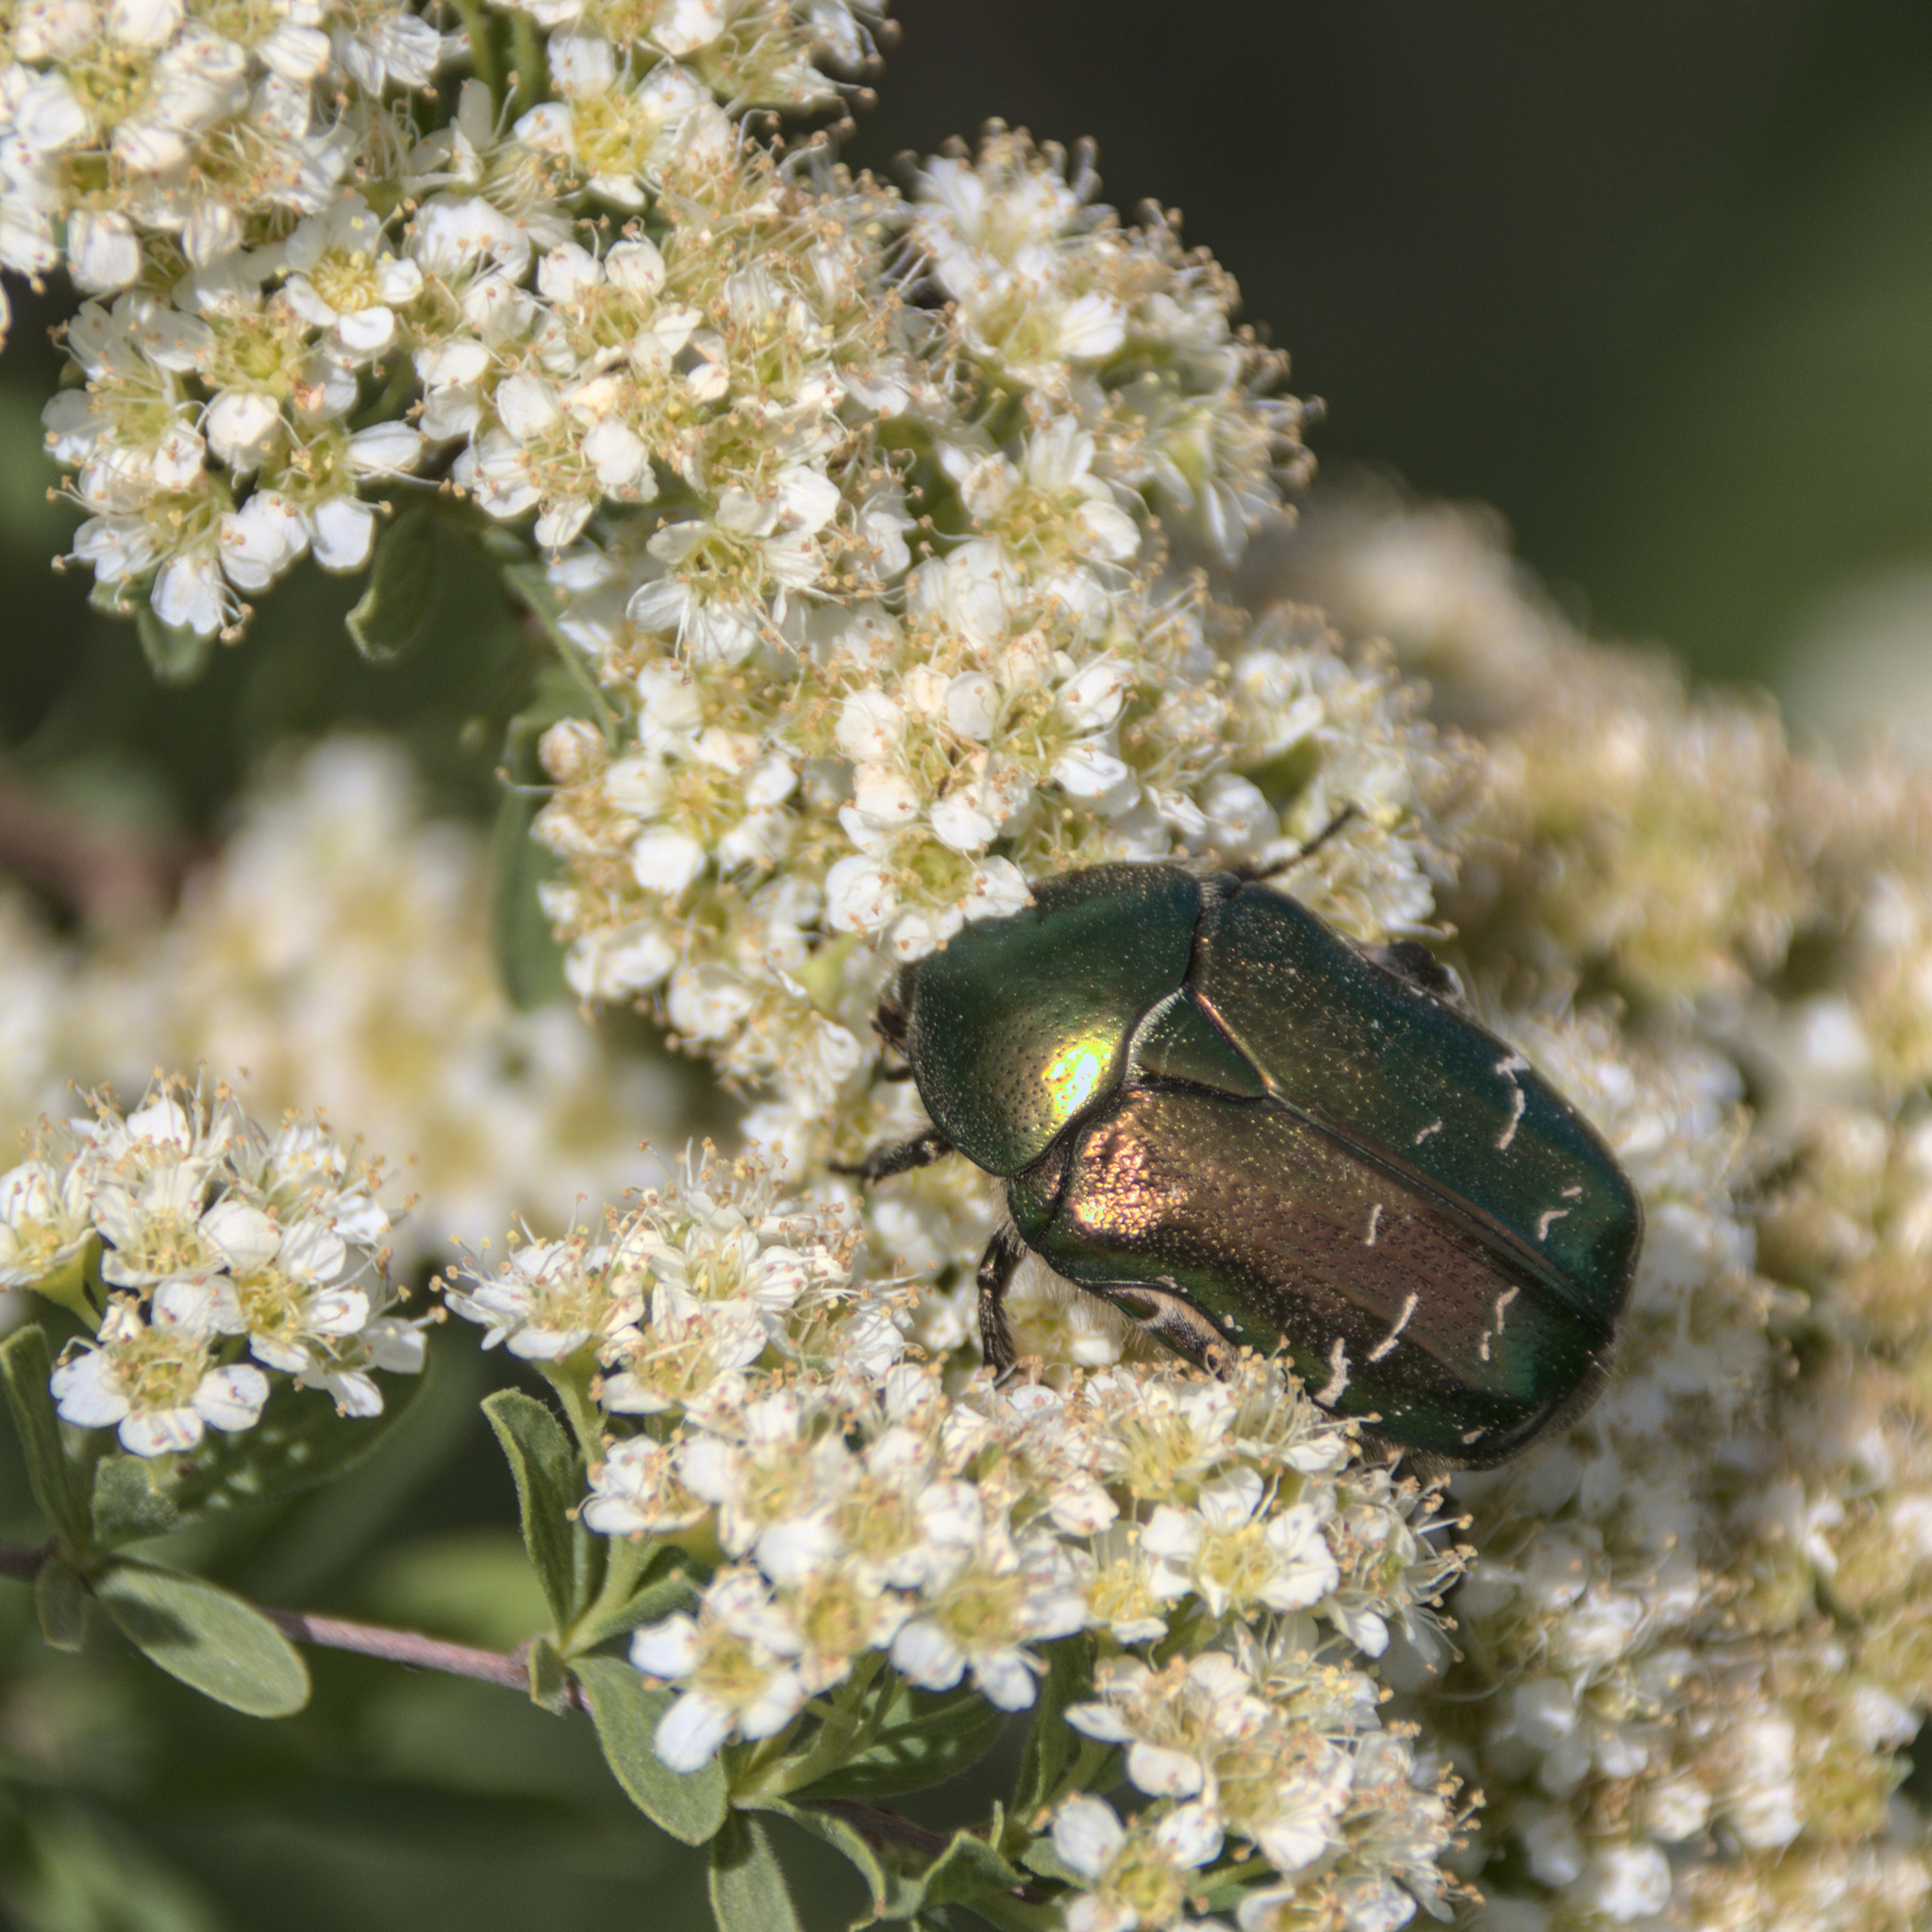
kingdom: Animalia
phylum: Arthropoda
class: Insecta
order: Coleoptera
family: Scarabaeidae
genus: Cetonia
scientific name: Cetonia aurata
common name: Rose chafer
